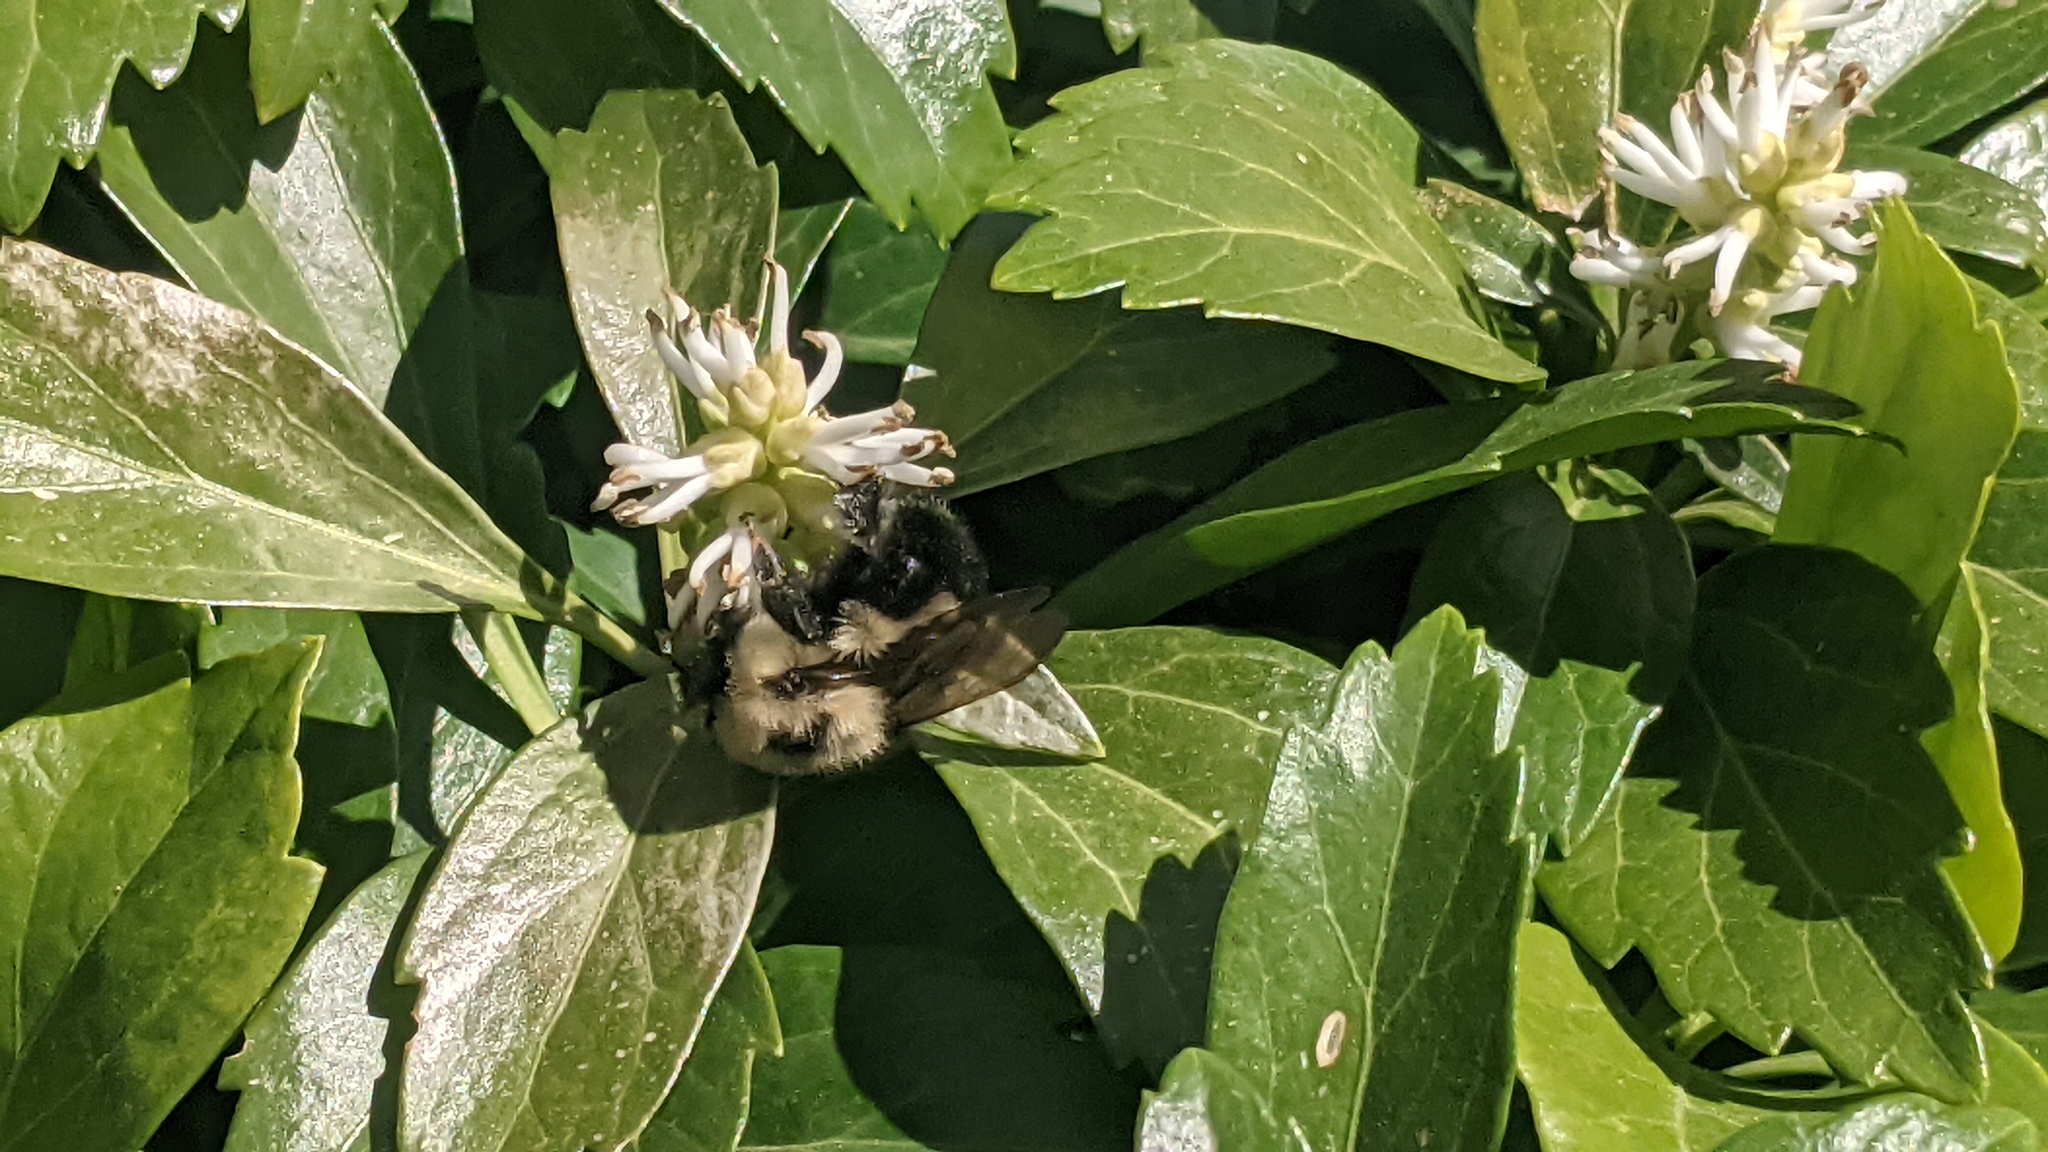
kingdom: Animalia
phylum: Arthropoda
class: Insecta
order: Hymenoptera
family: Apidae
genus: Bombus
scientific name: Bombus bimaculatus
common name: Two-spotted bumble bee
